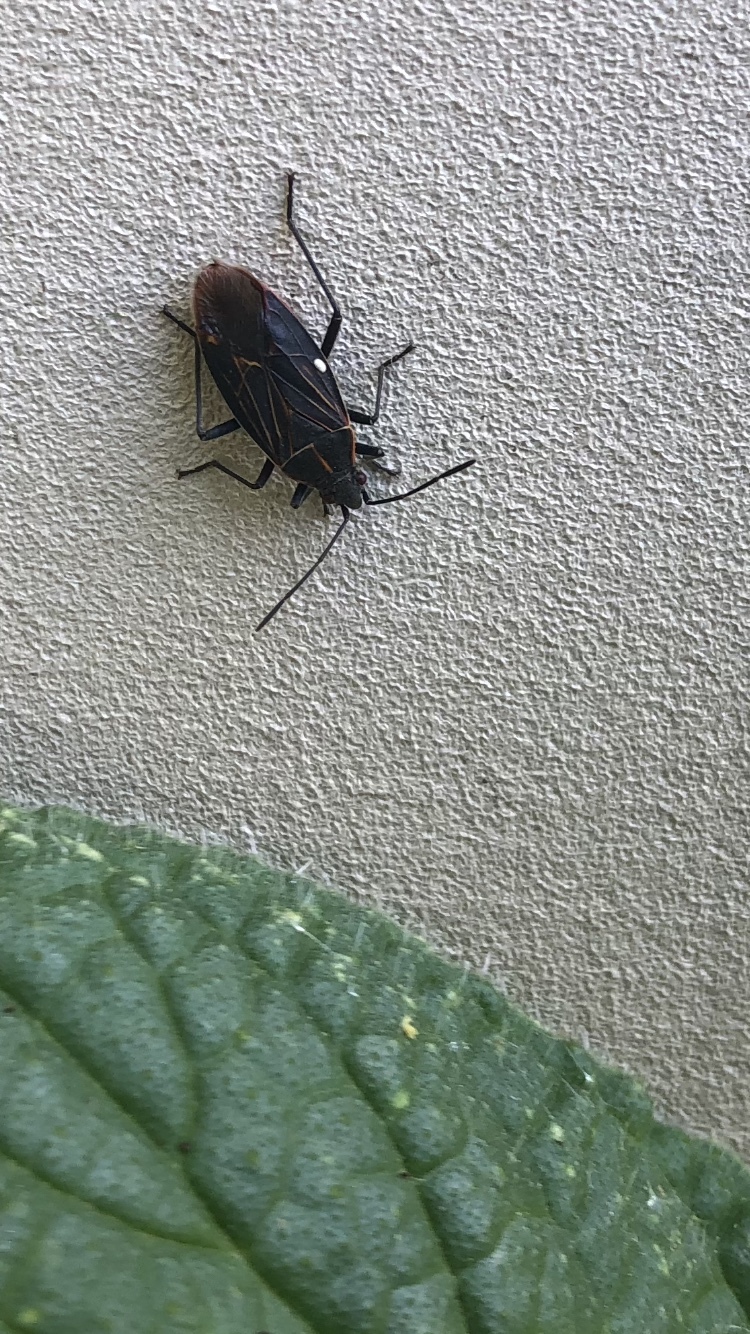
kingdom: Animalia
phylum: Arthropoda
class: Insecta
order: Hemiptera
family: Rhopalidae
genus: Boisea
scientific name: Boisea rubrolineata
